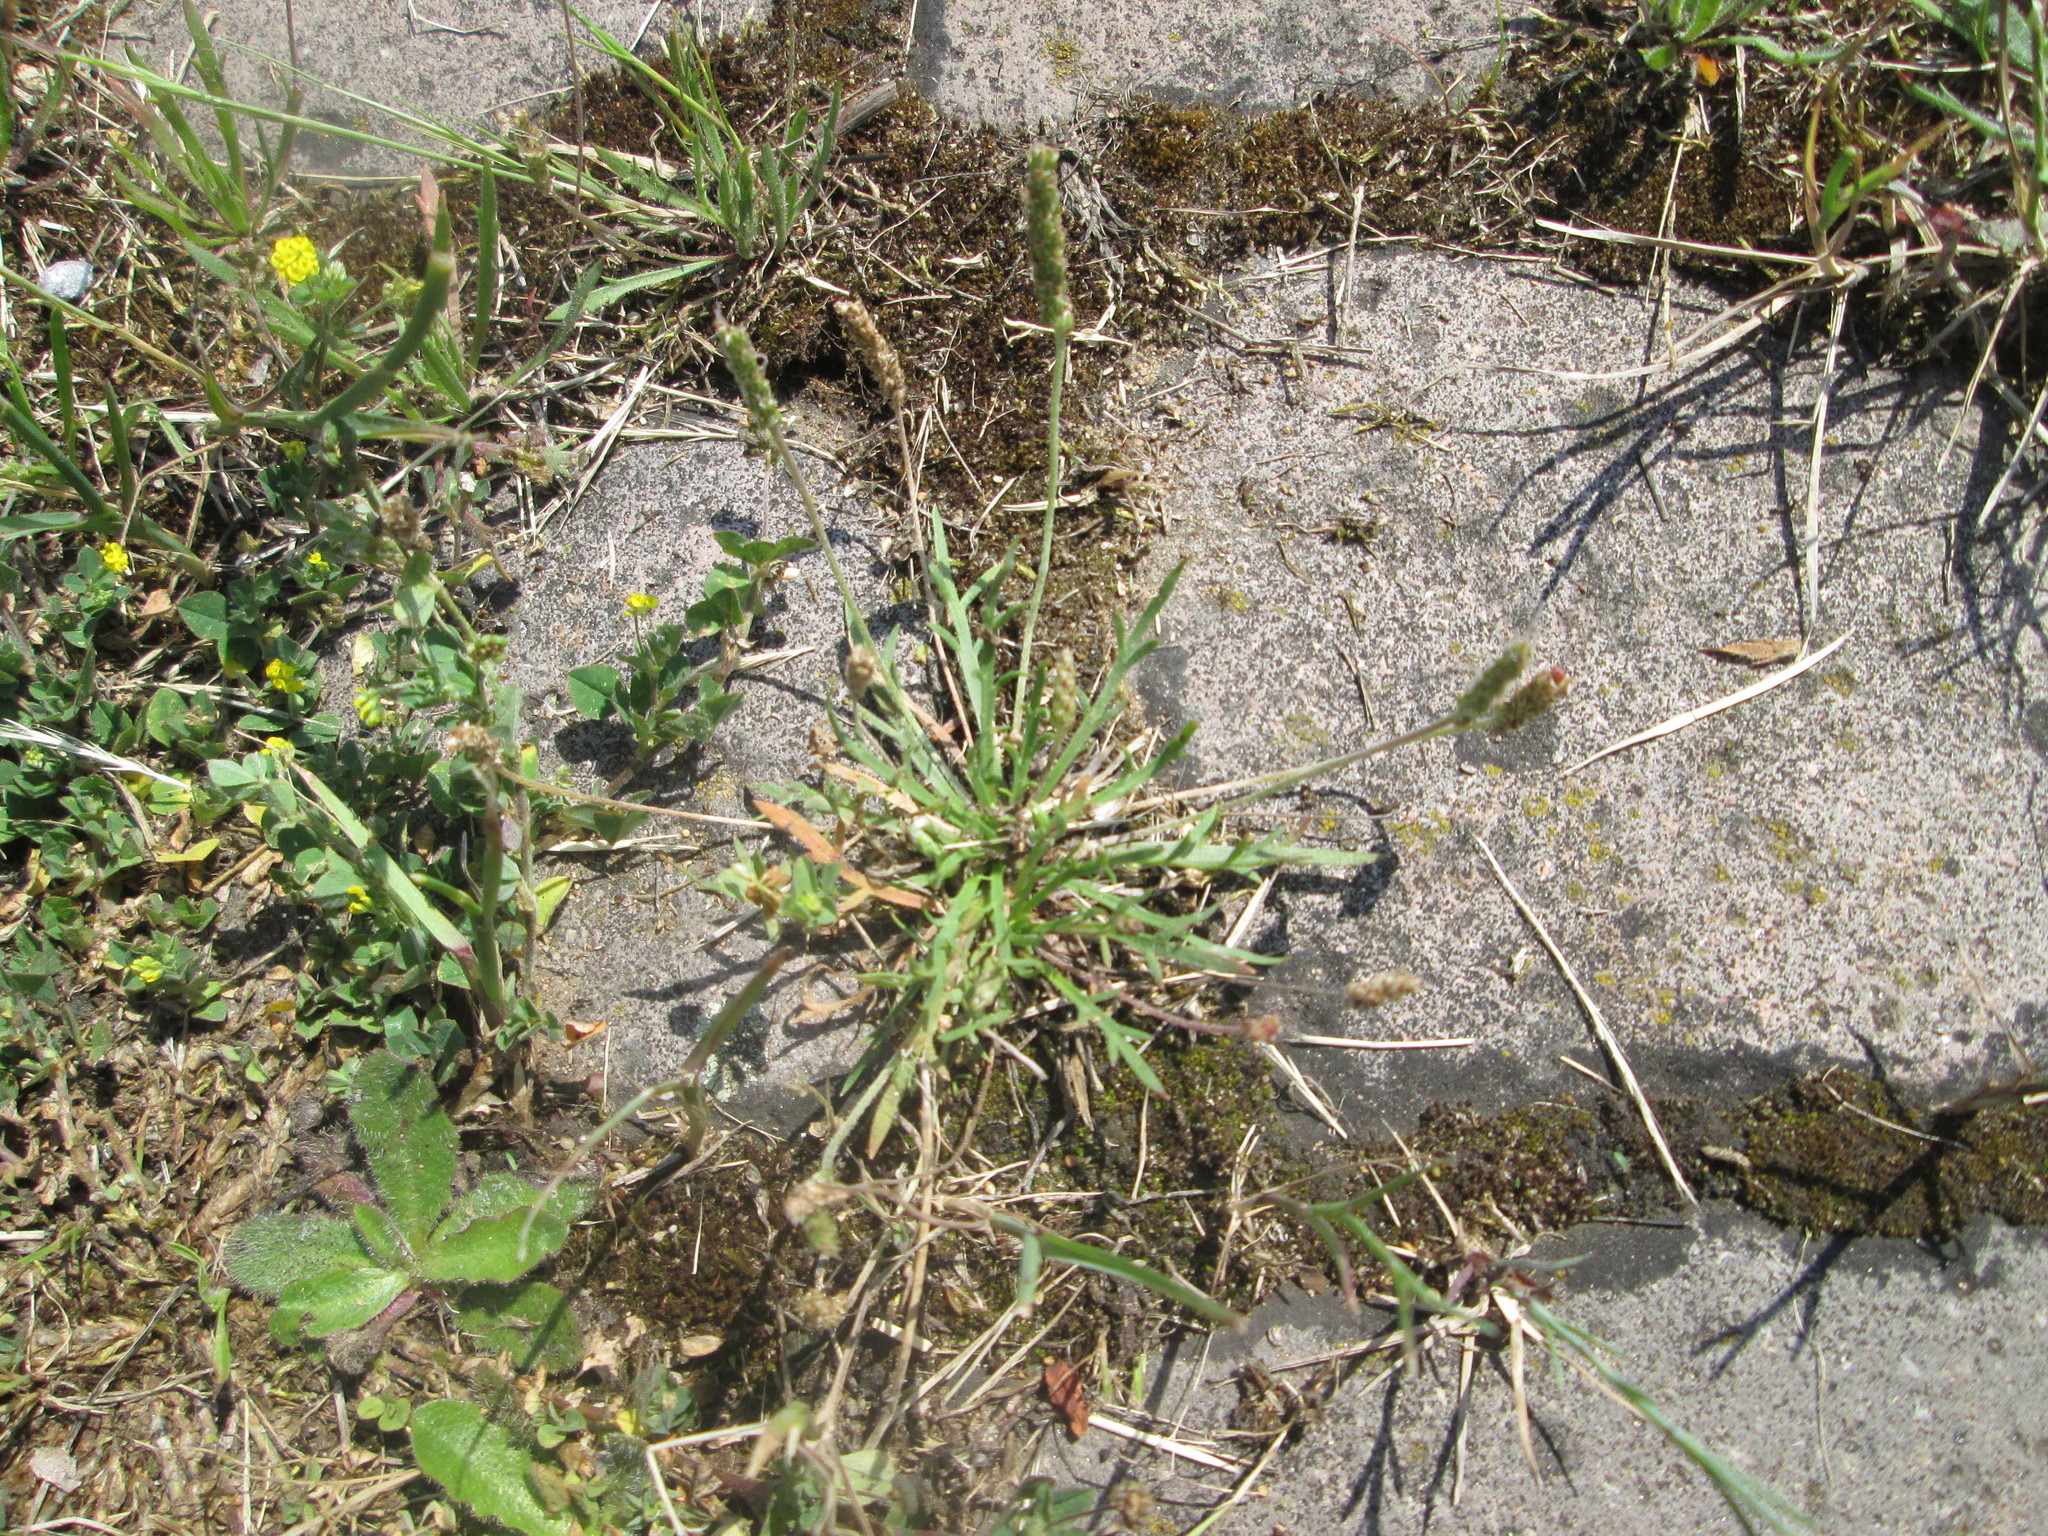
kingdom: Plantae
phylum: Tracheophyta
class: Magnoliopsida
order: Lamiales
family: Plantaginaceae
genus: Plantago
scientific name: Plantago coronopus
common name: Buck's-horn plantain
